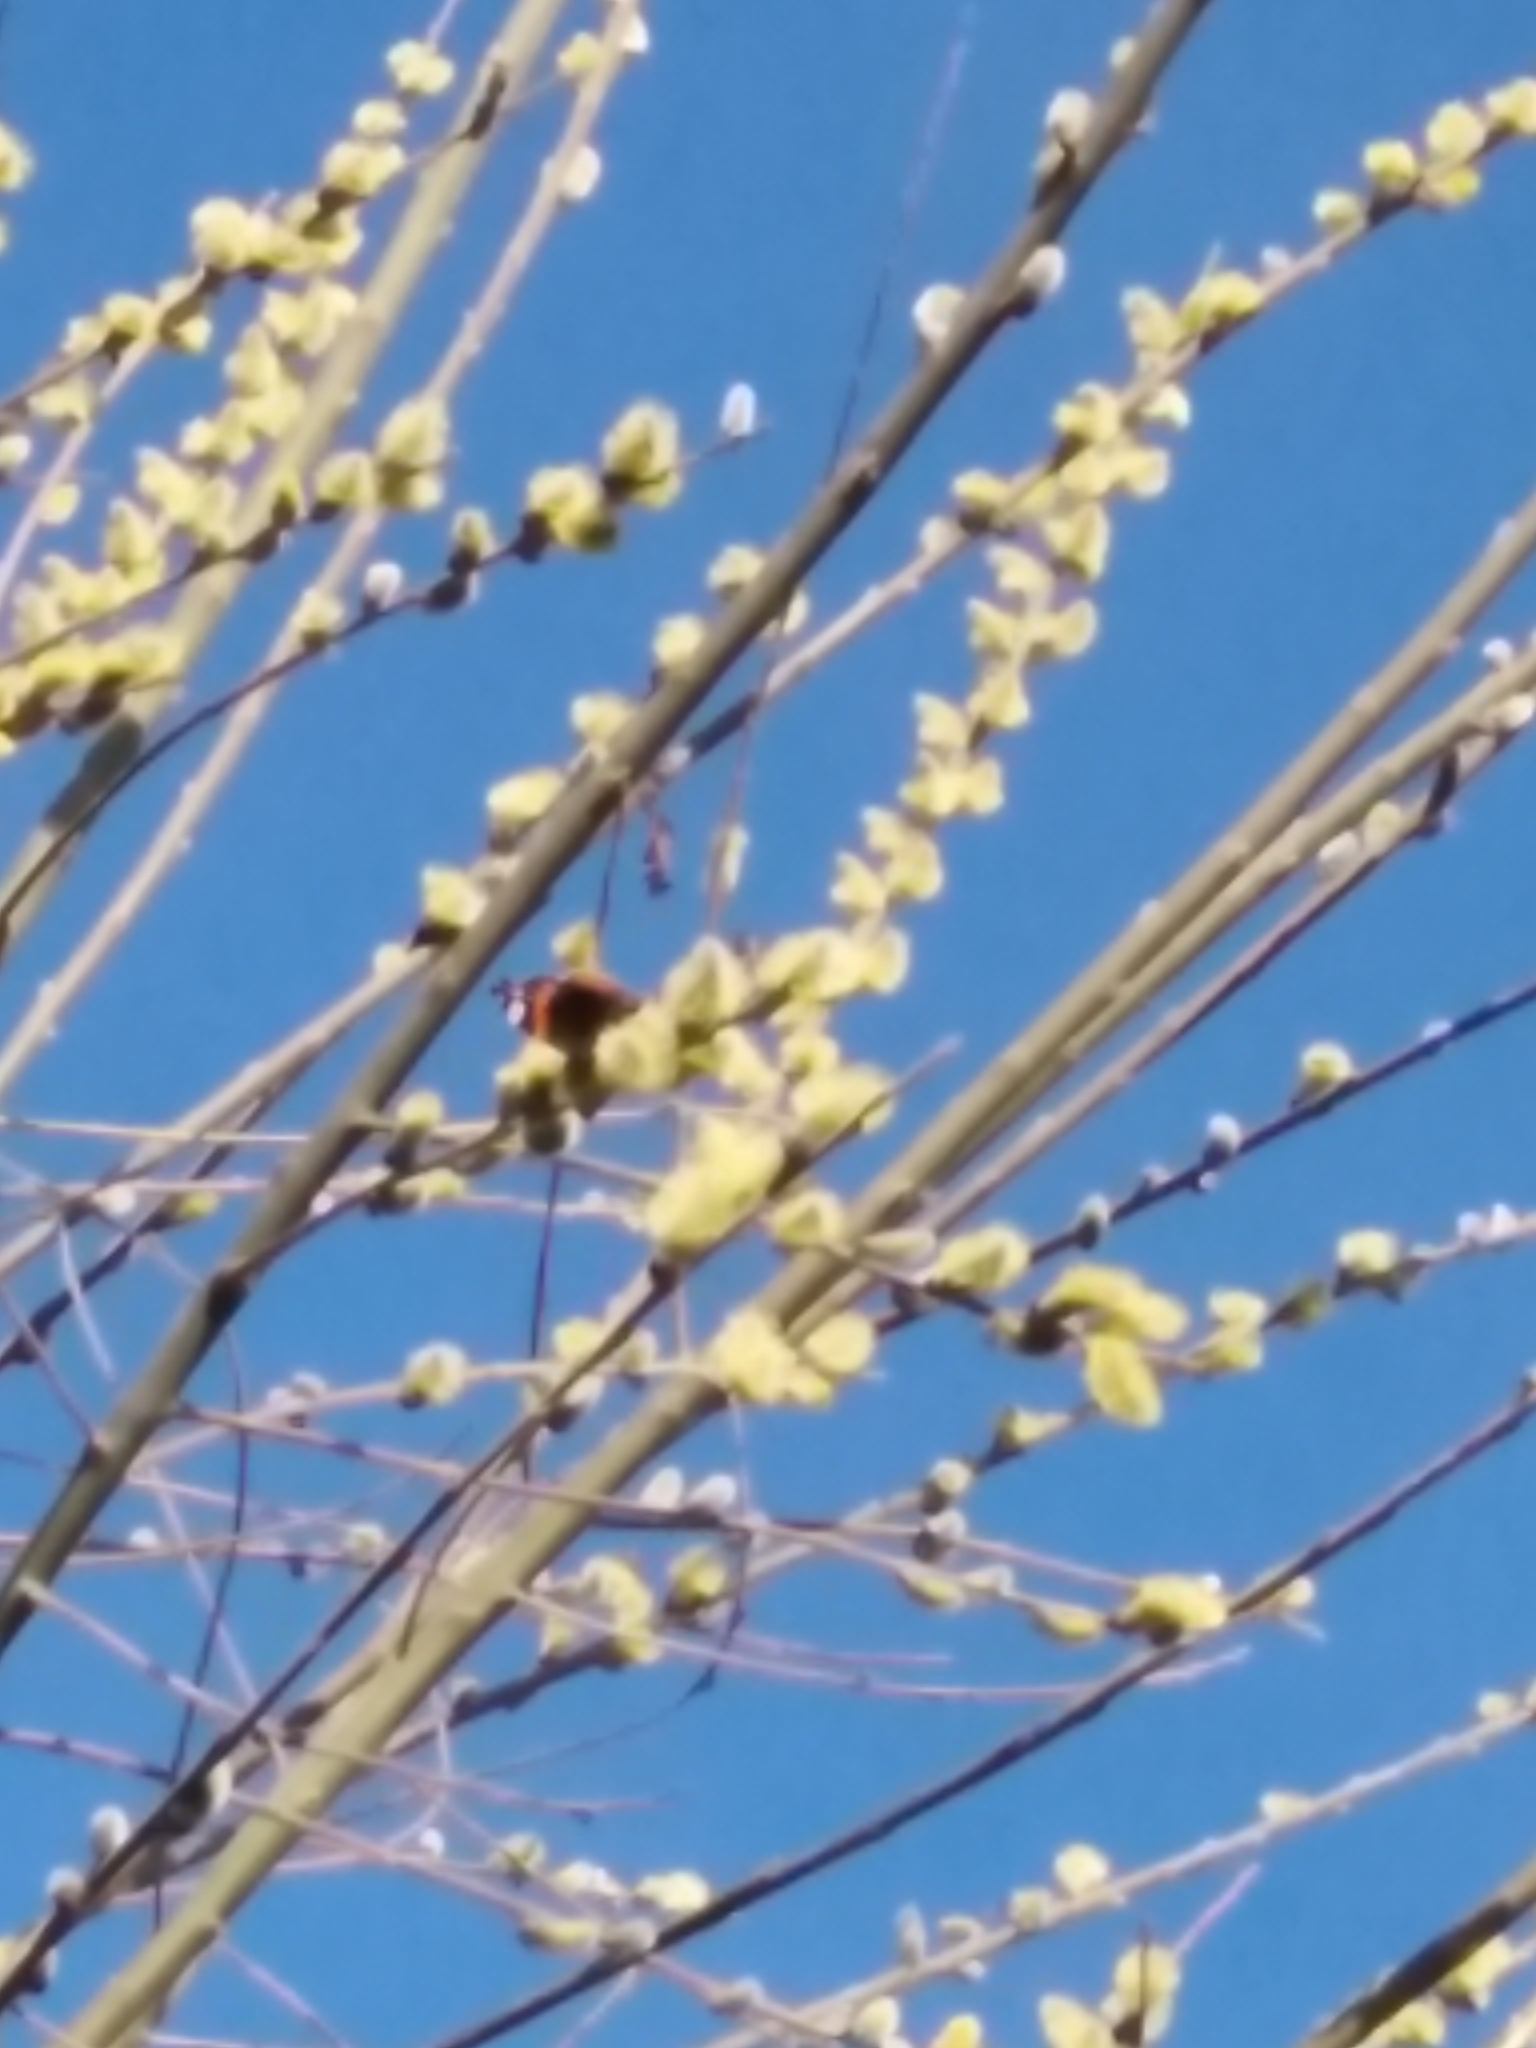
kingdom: Animalia
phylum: Arthropoda
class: Insecta
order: Lepidoptera
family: Nymphalidae
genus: Vanessa
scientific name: Vanessa atalanta
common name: Red admiral
